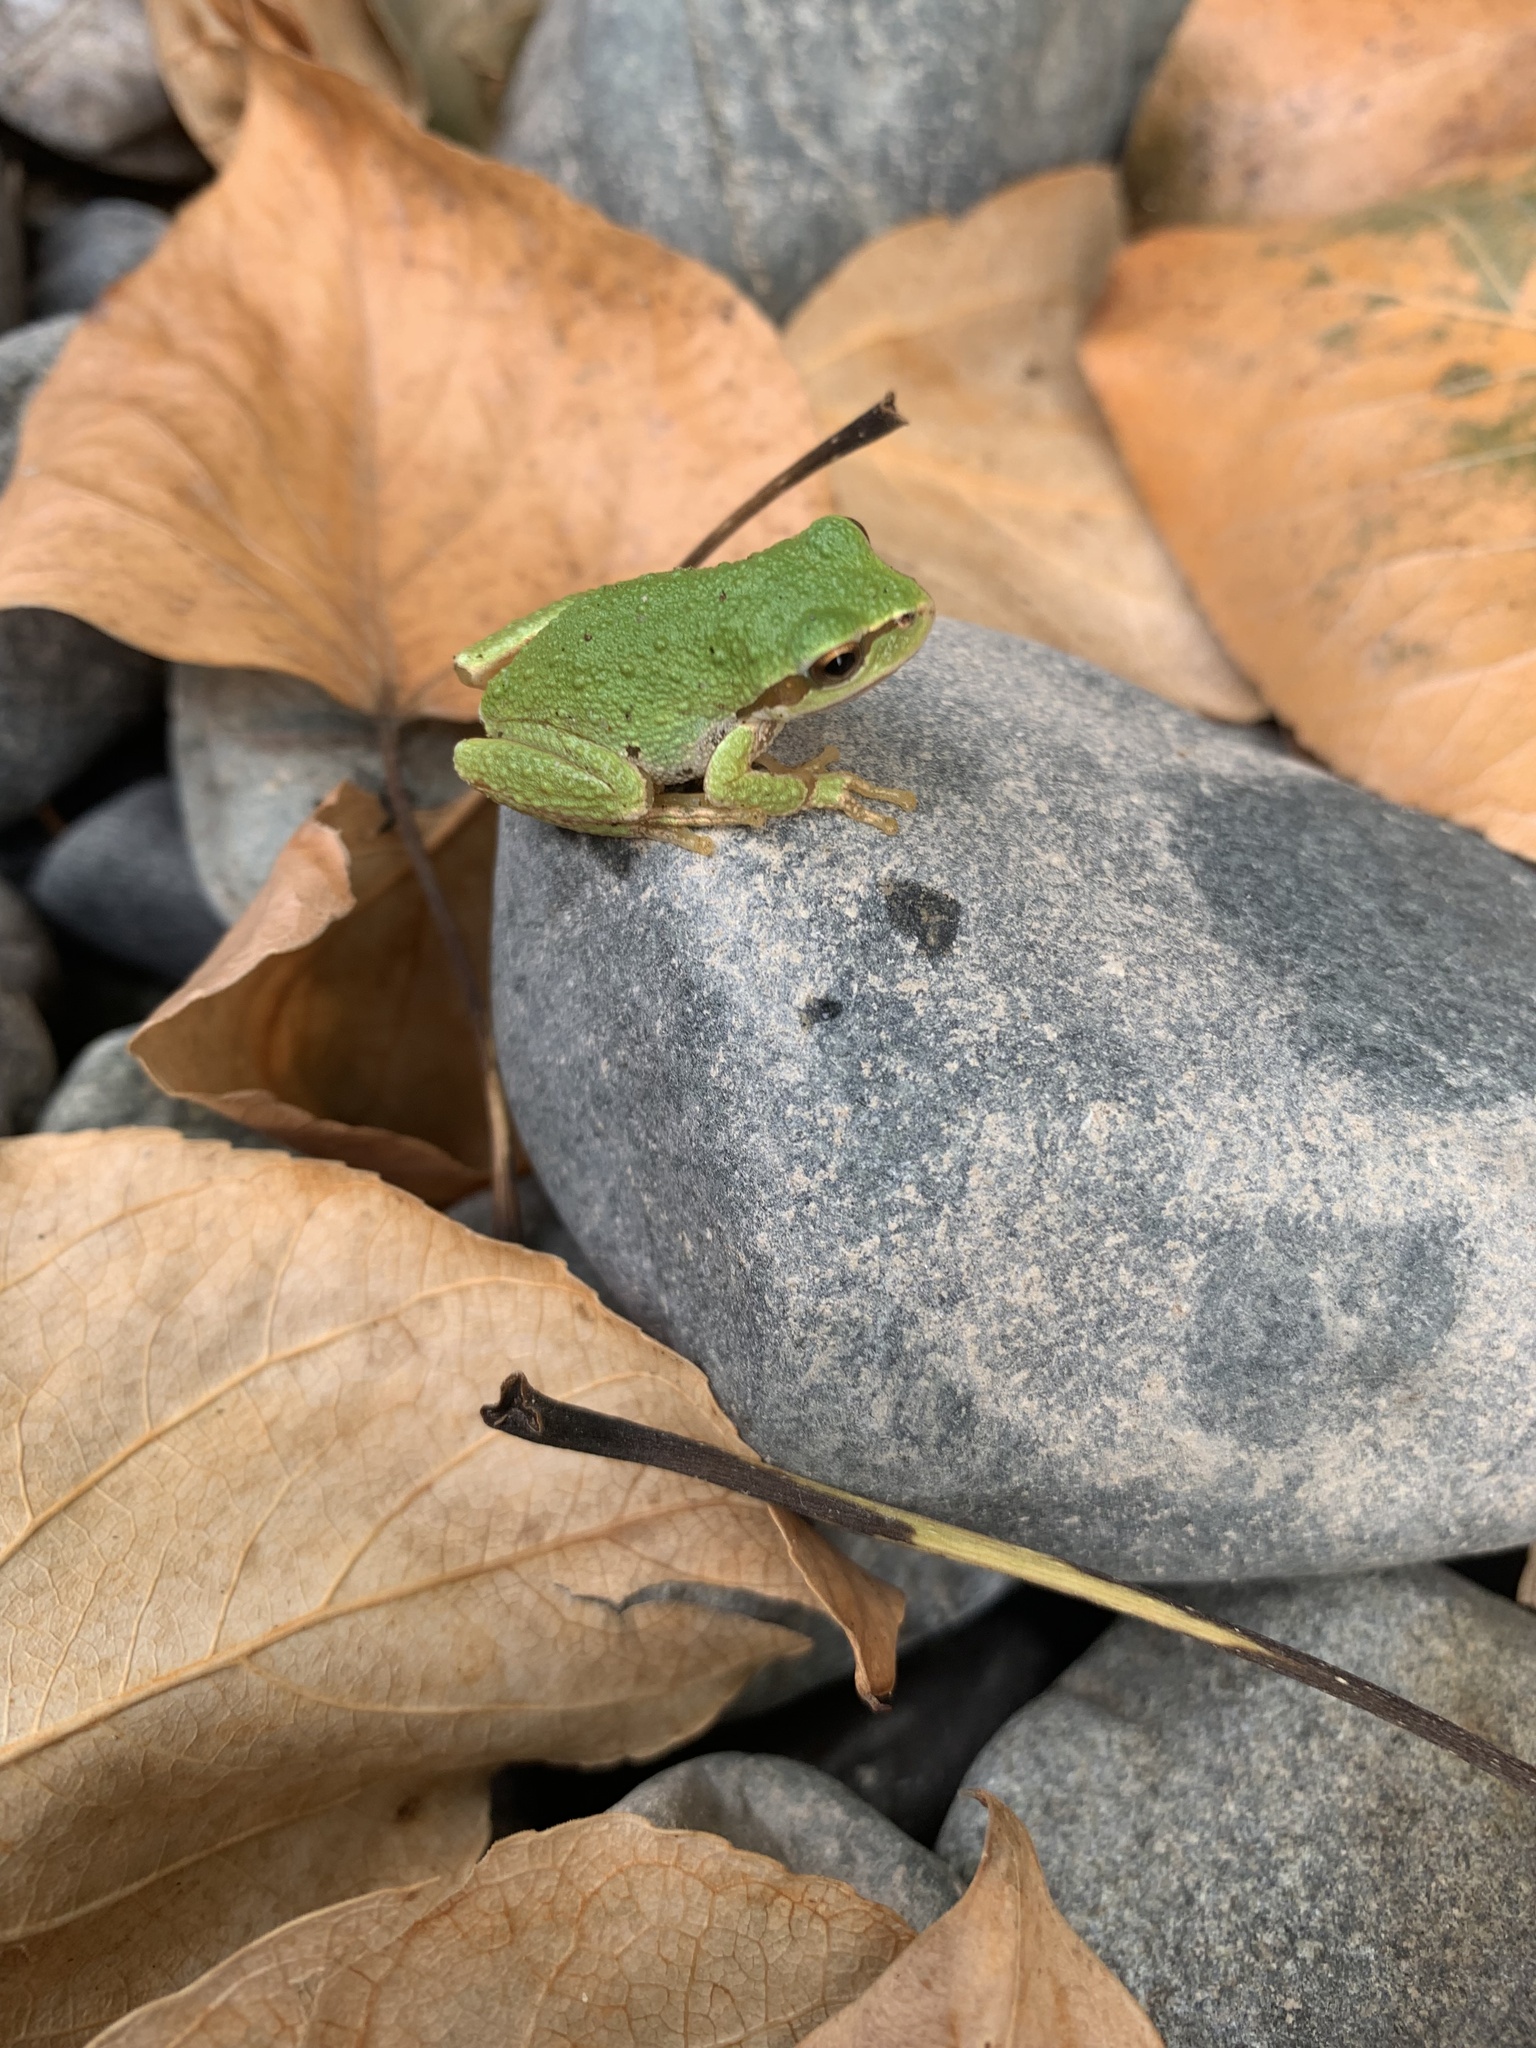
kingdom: Animalia
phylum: Chordata
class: Amphibia
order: Anura
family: Hylidae
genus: Pseudacris
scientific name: Pseudacris regilla
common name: Pacific chorus frog
